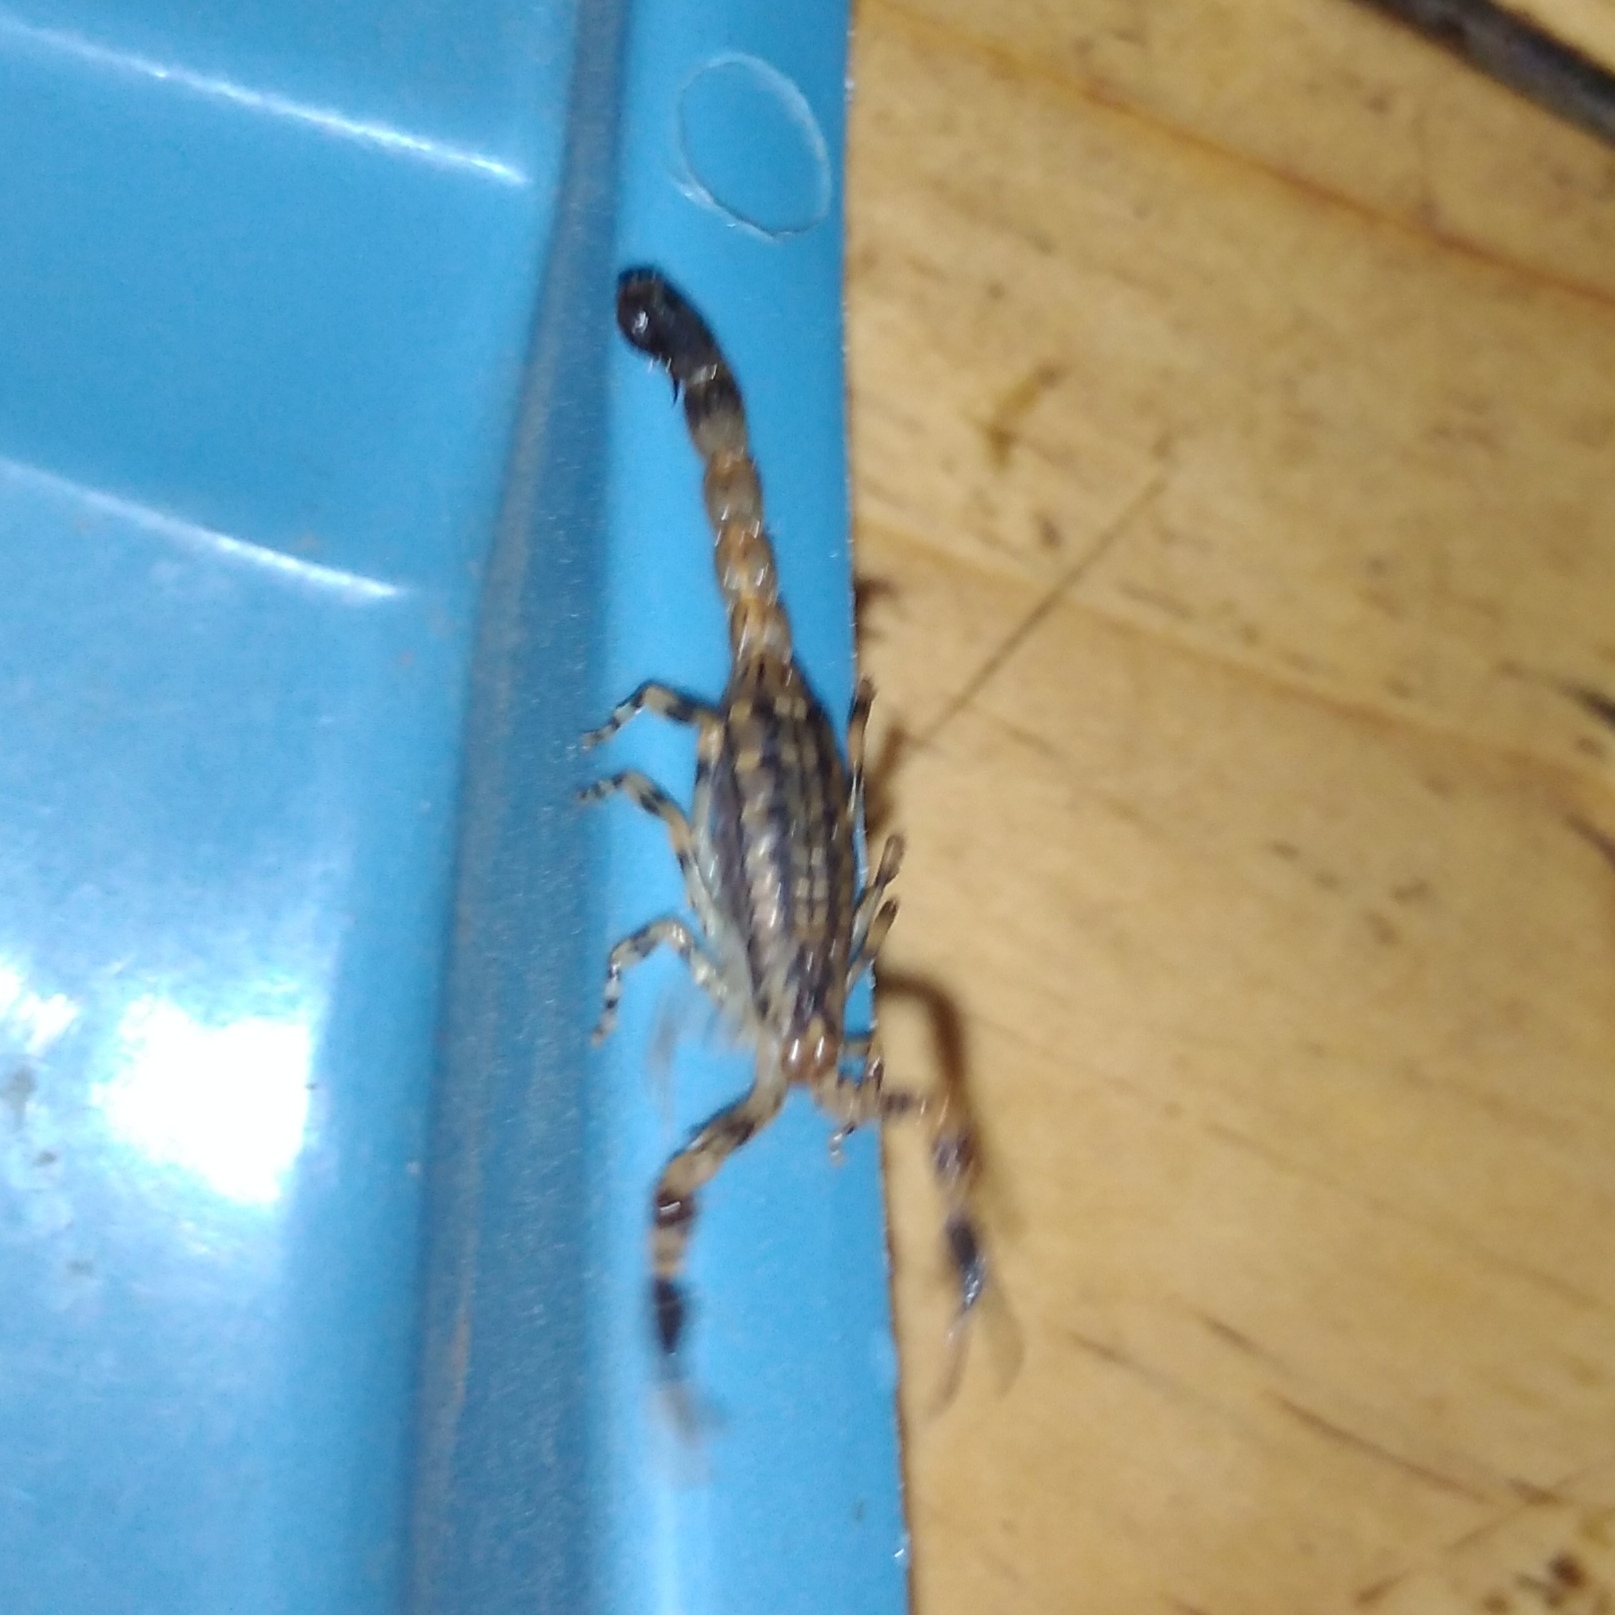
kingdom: Animalia
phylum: Arthropoda
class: Arachnida
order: Scorpiones
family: Buthidae
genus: Uroplectes
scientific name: Uroplectes formosus
